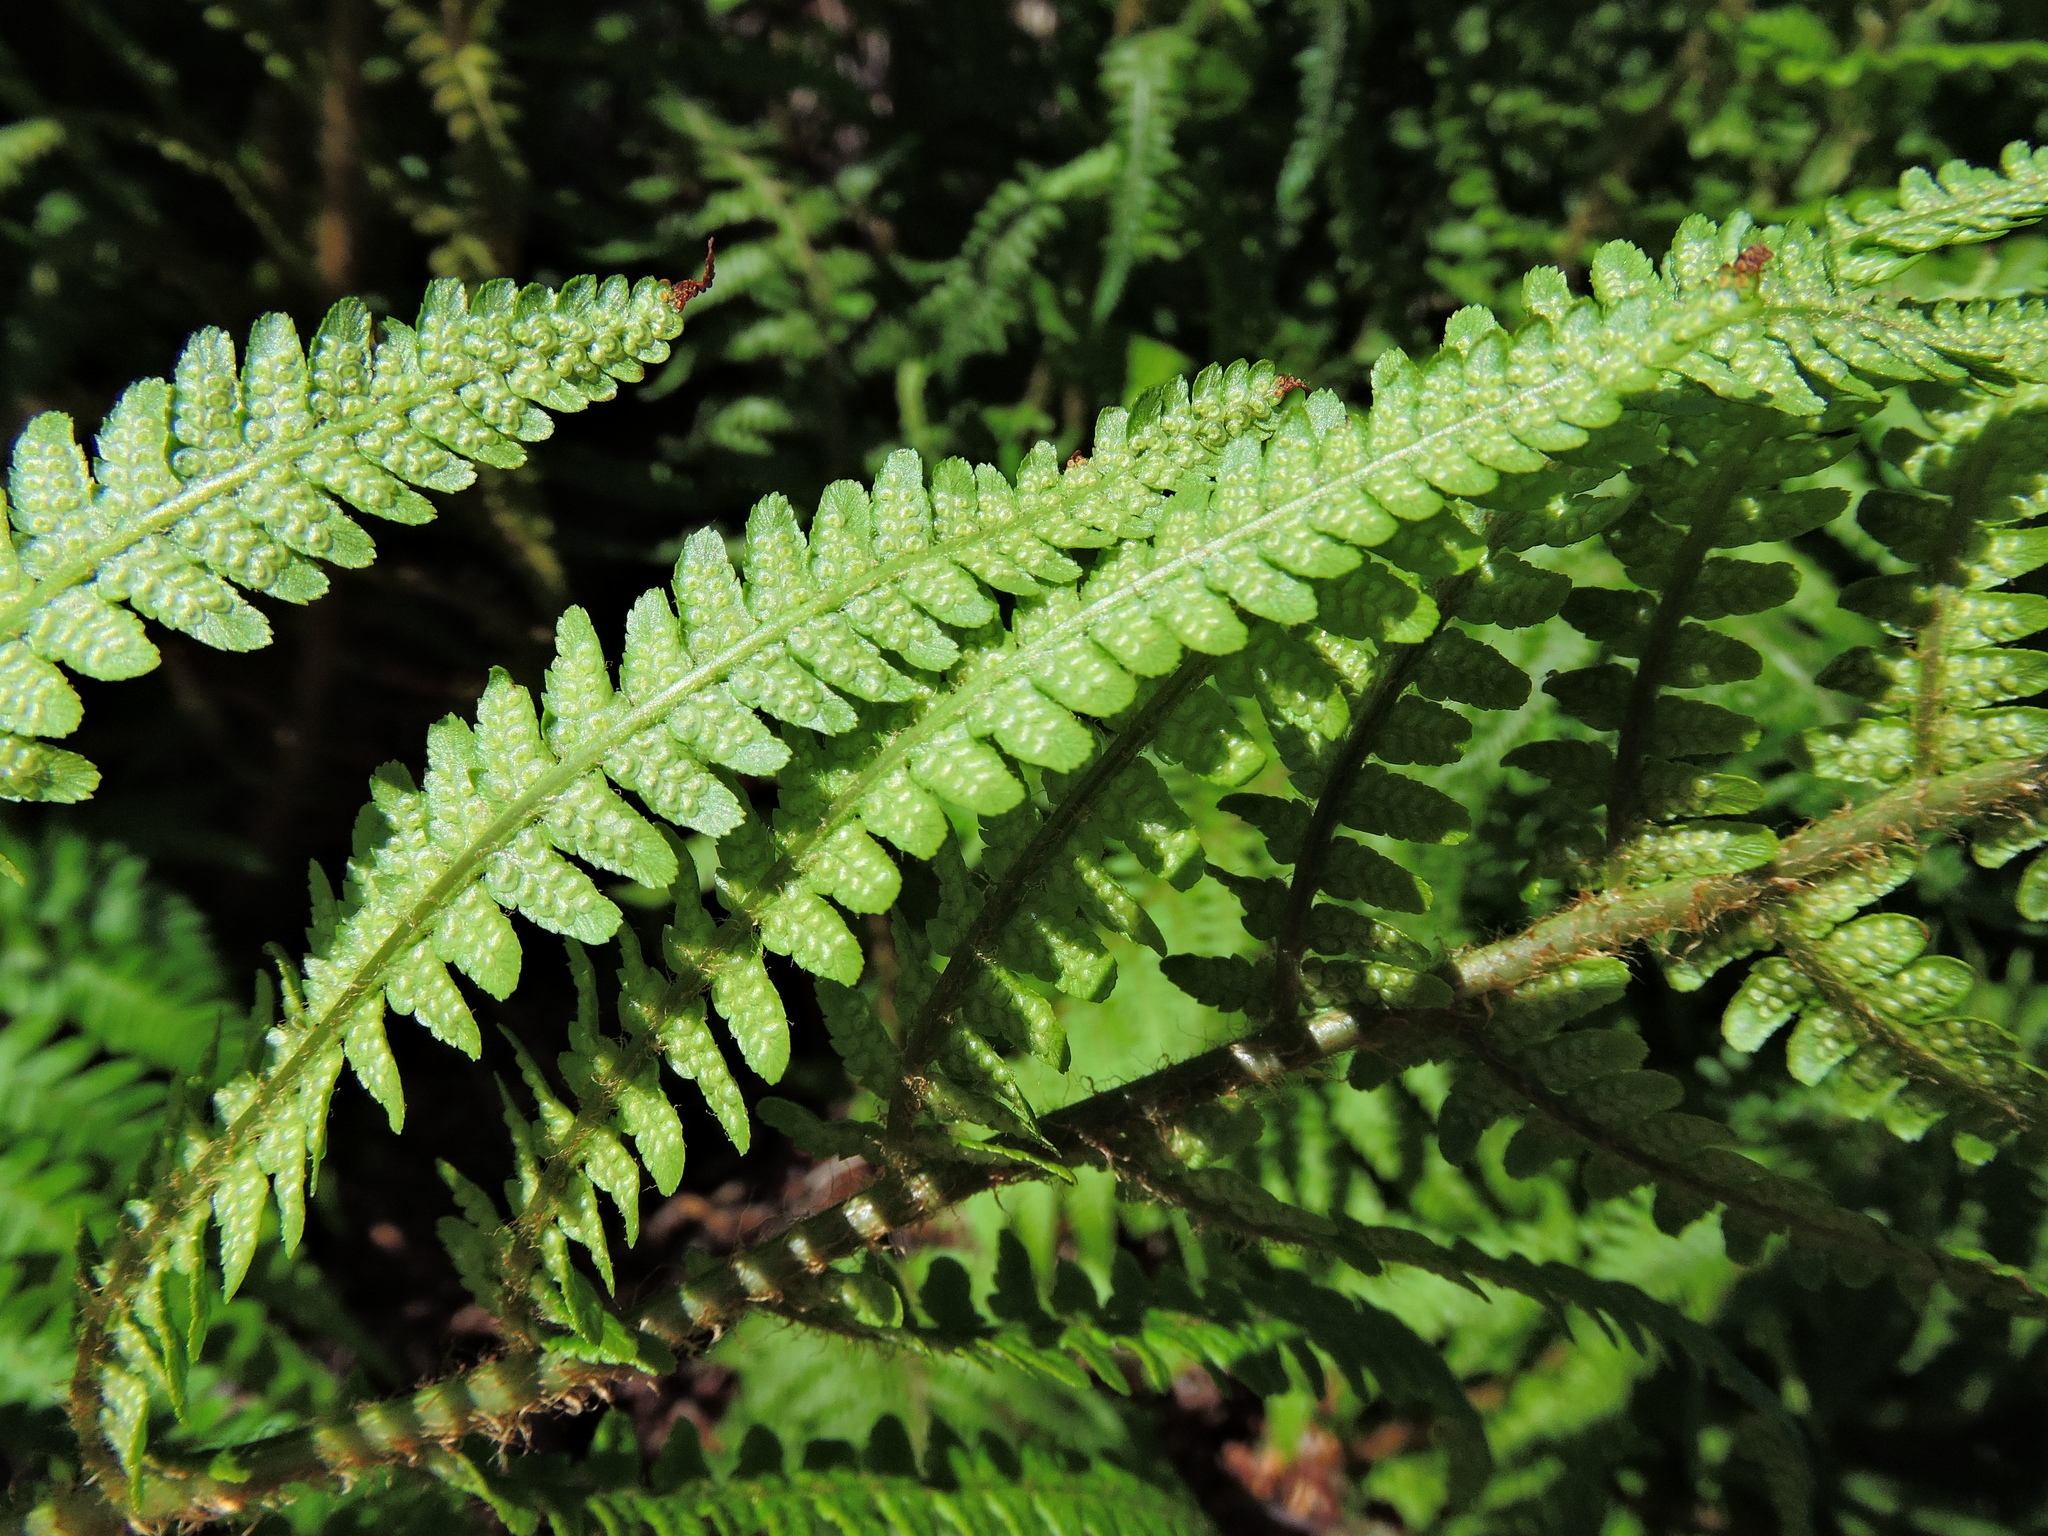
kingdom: Plantae
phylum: Tracheophyta
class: Polypodiopsida
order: Polypodiales
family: Dryopteridaceae
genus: Dryopteris
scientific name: Dryopteris filix-mas
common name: Male fern
